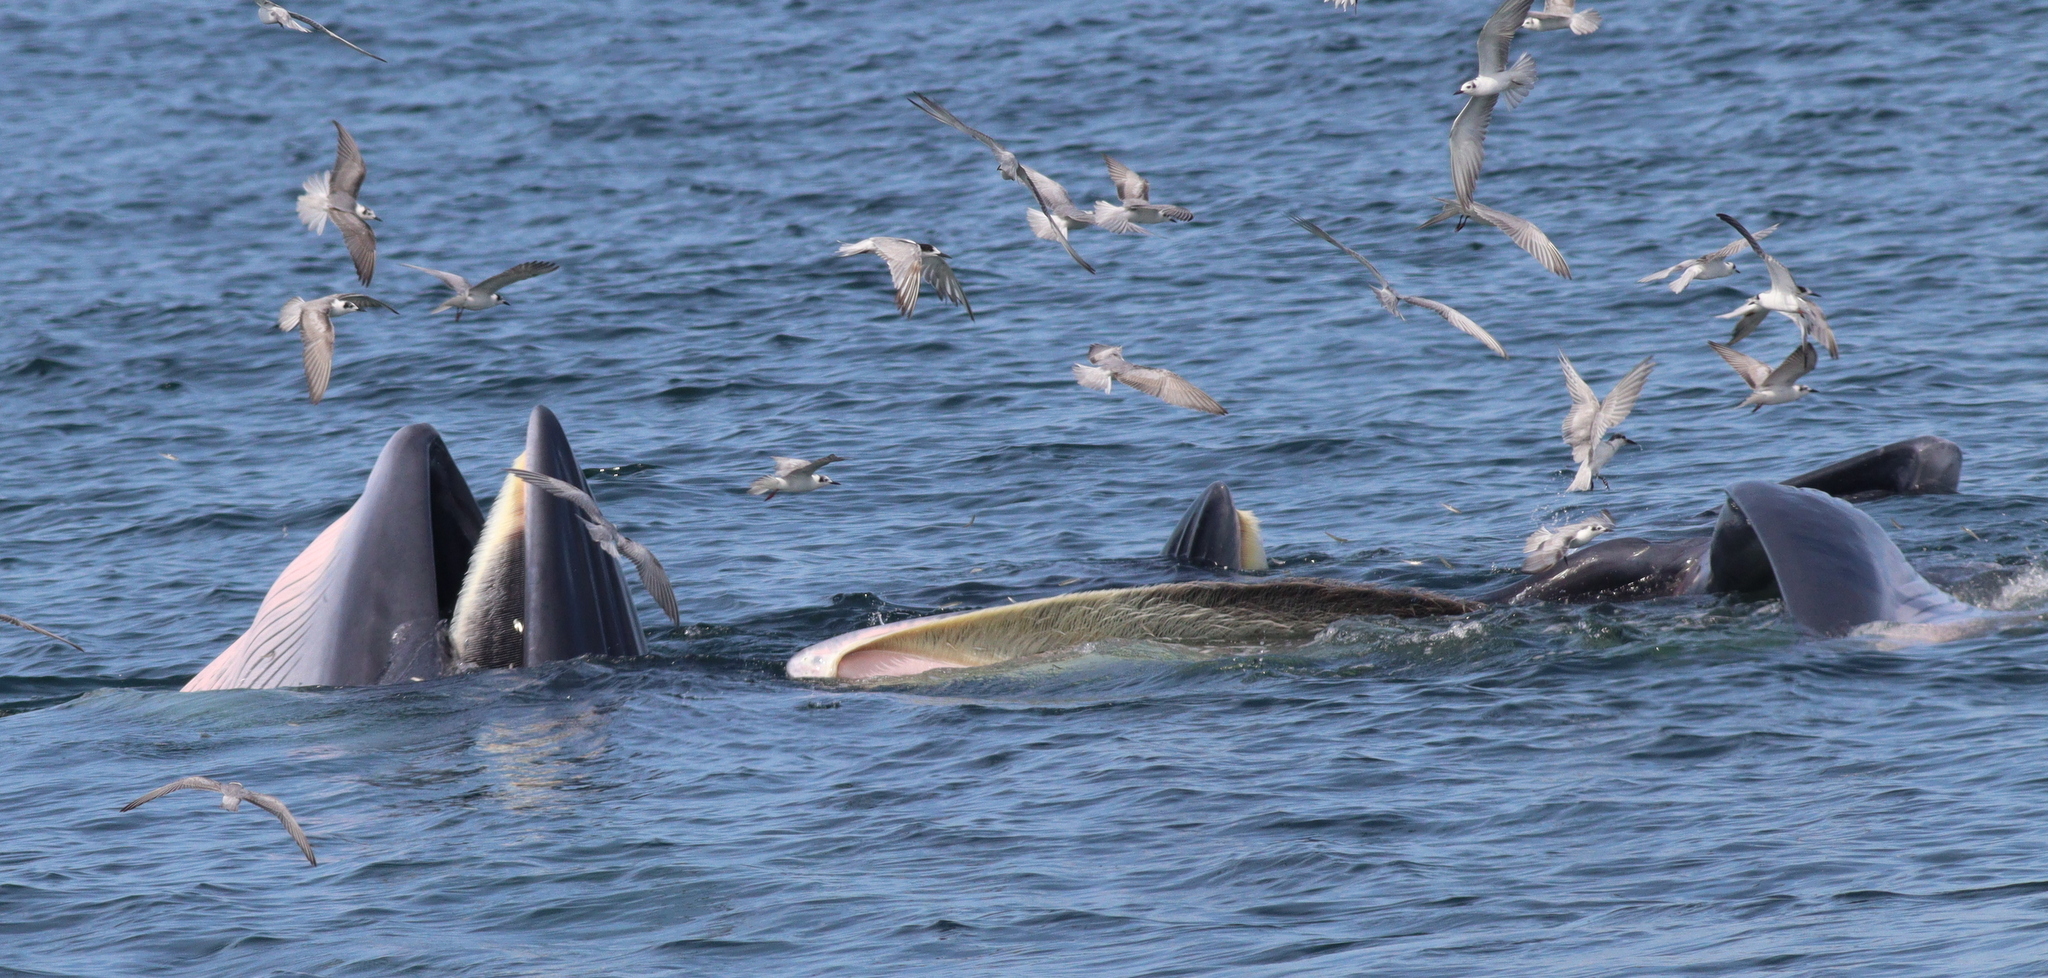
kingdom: Animalia
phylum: Chordata
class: Mammalia
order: Cetacea
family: Balaenopteridae
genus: Balaenoptera
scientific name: Balaenoptera edeni
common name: Bryde's whale
